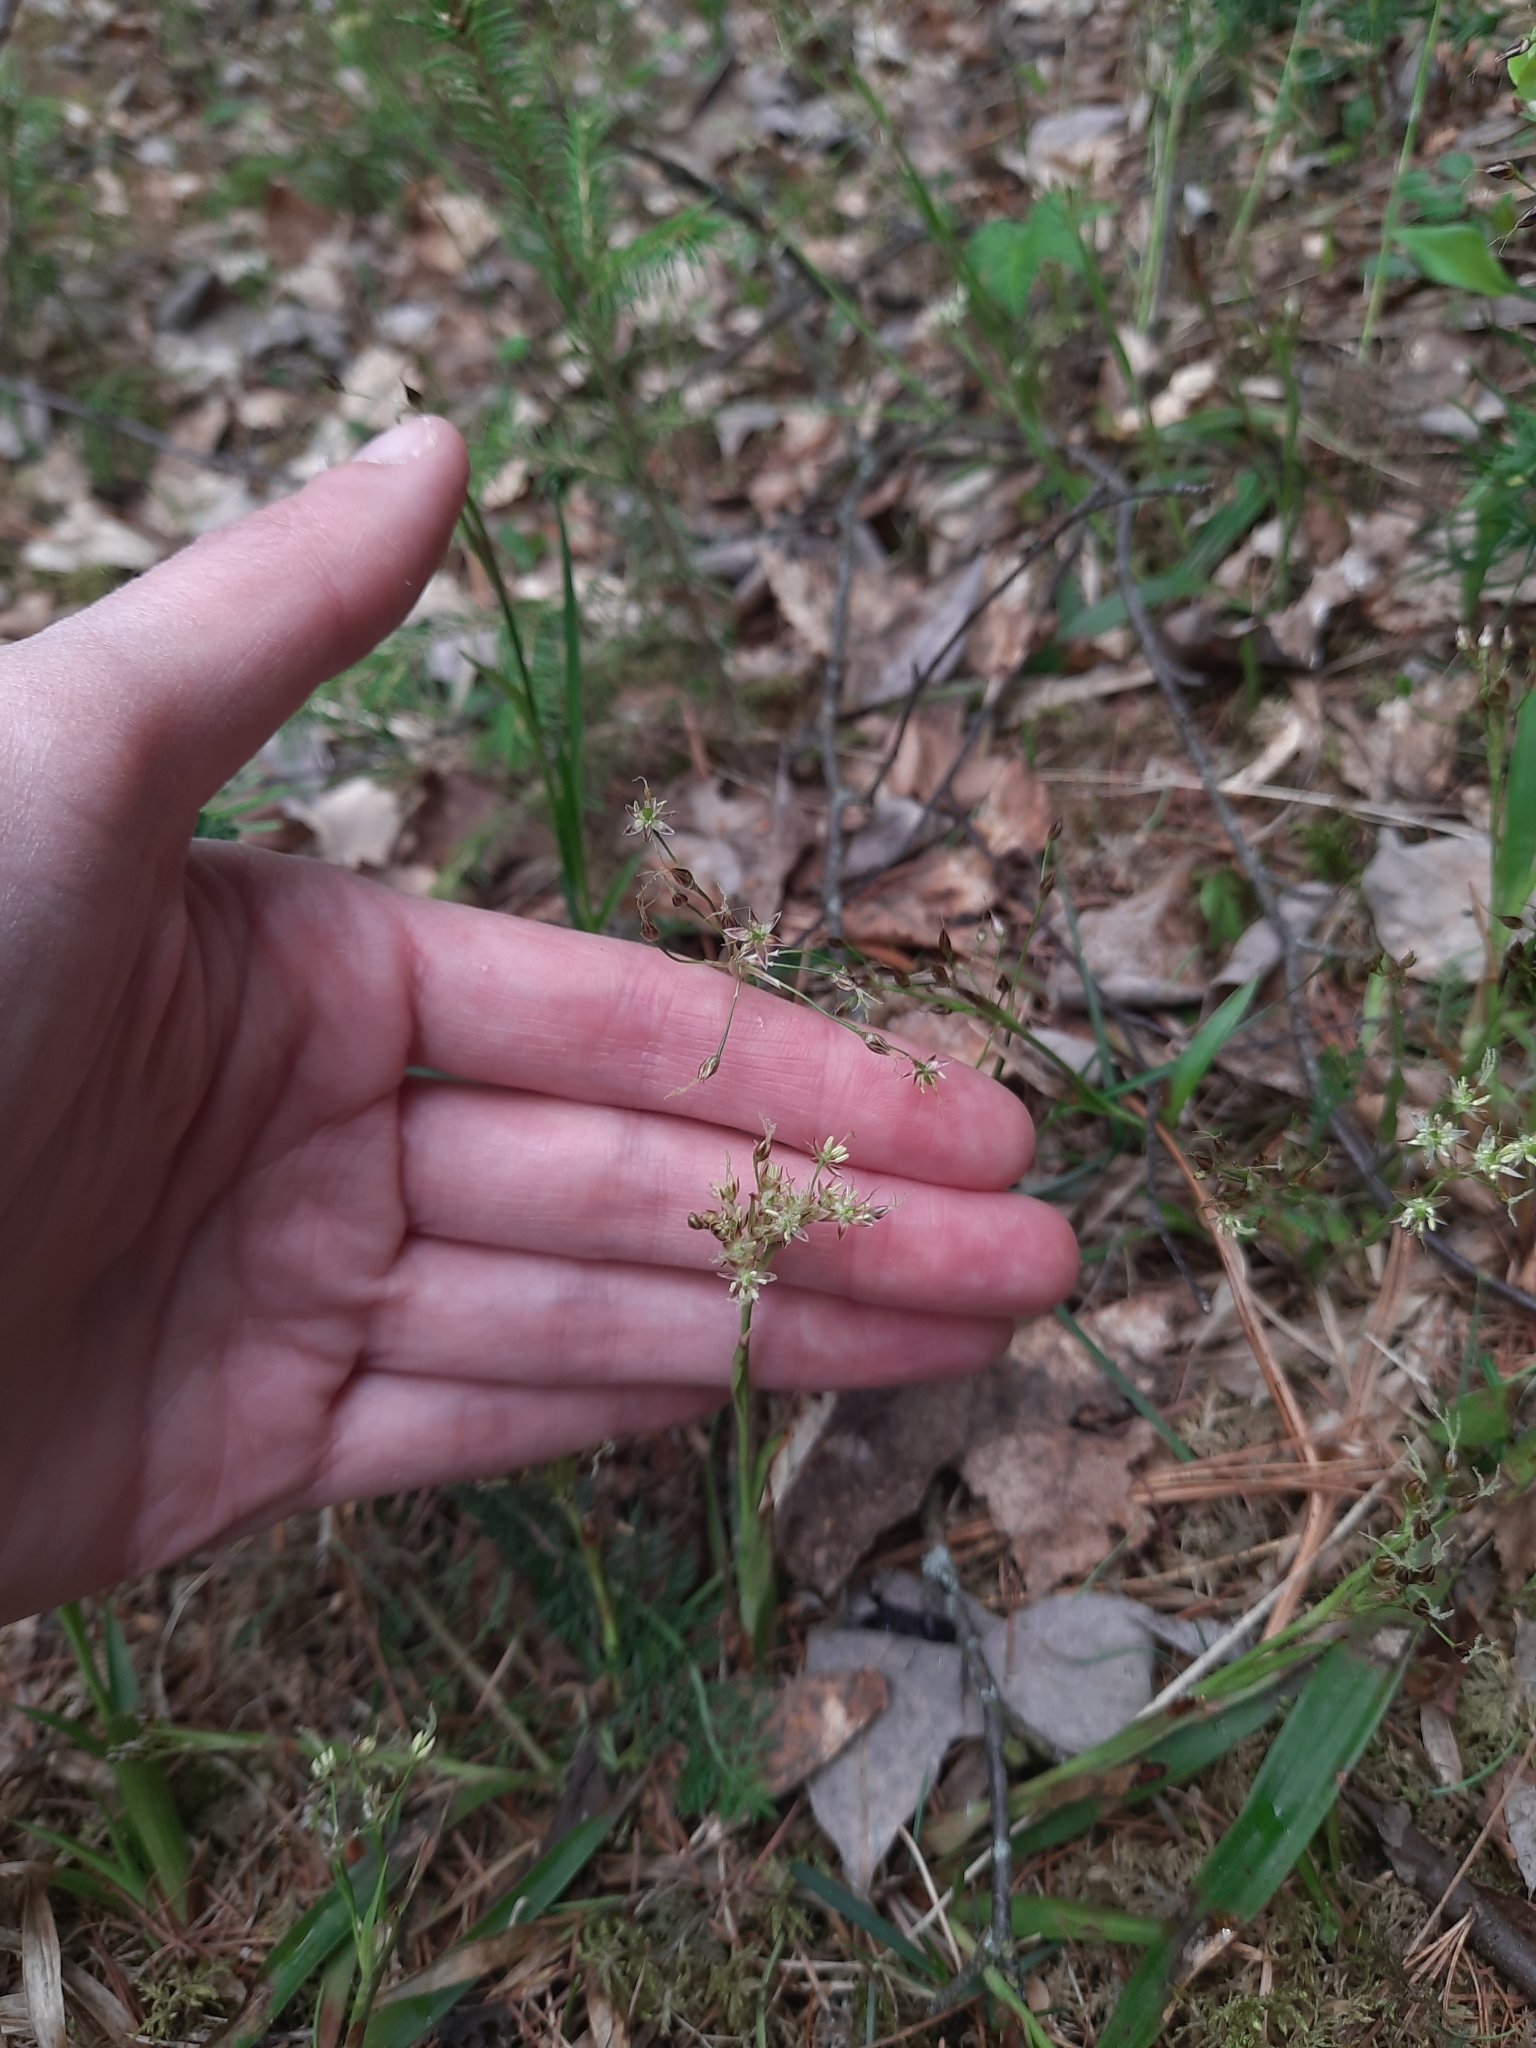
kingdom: Plantae
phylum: Tracheophyta
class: Liliopsida
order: Poales
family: Juncaceae
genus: Luzula
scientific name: Luzula pilosa
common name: Hairy wood-rush
